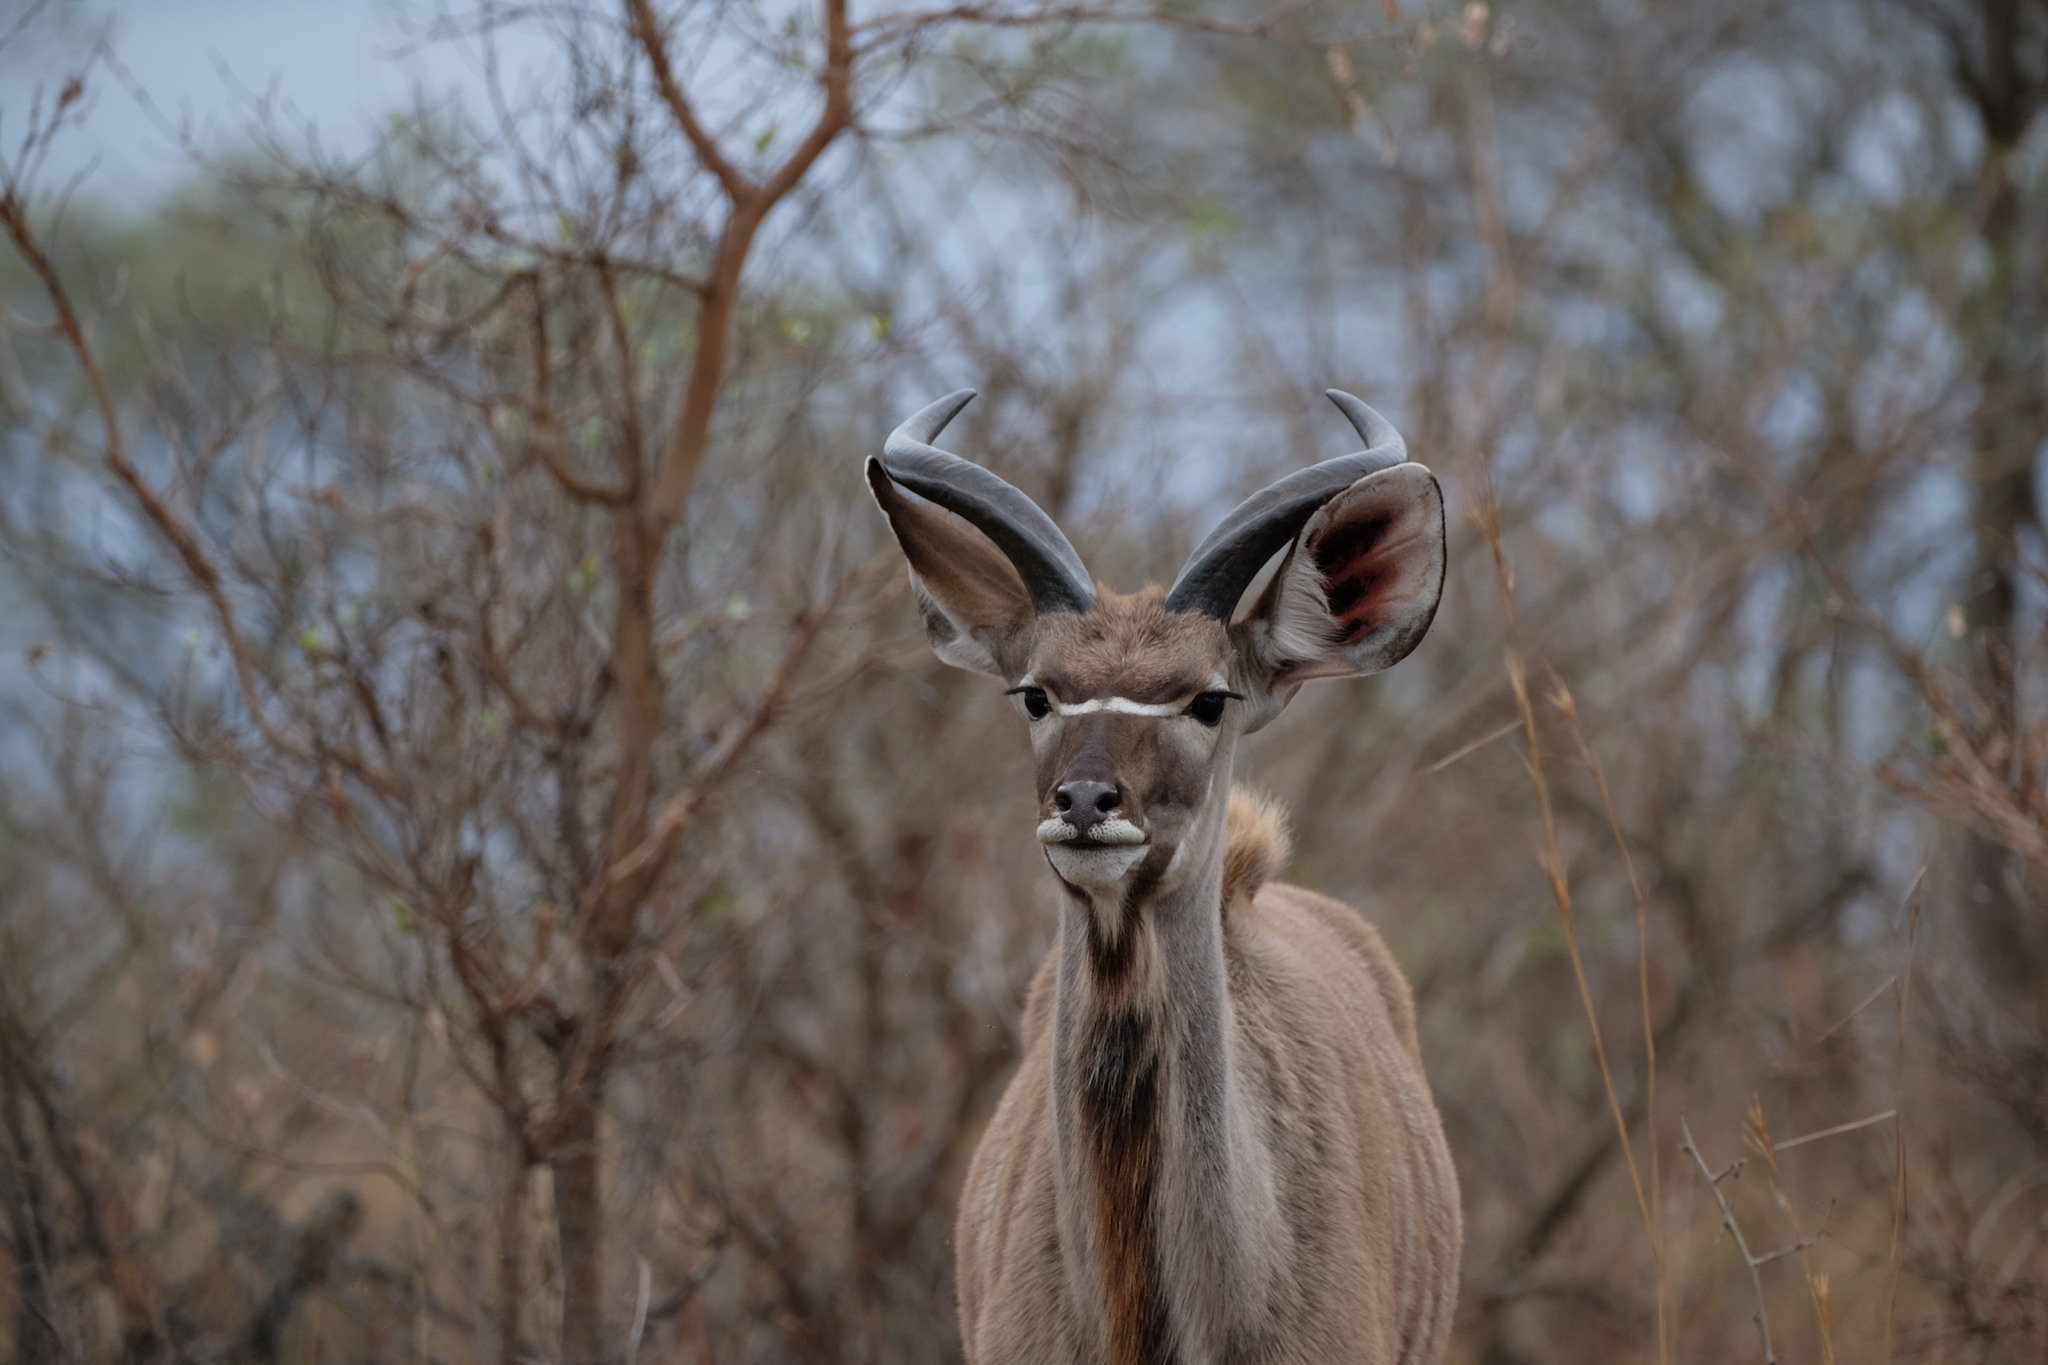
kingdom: Animalia
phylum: Chordata
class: Mammalia
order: Artiodactyla
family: Bovidae
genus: Tragelaphus
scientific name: Tragelaphus strepsiceros
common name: Greater kudu
